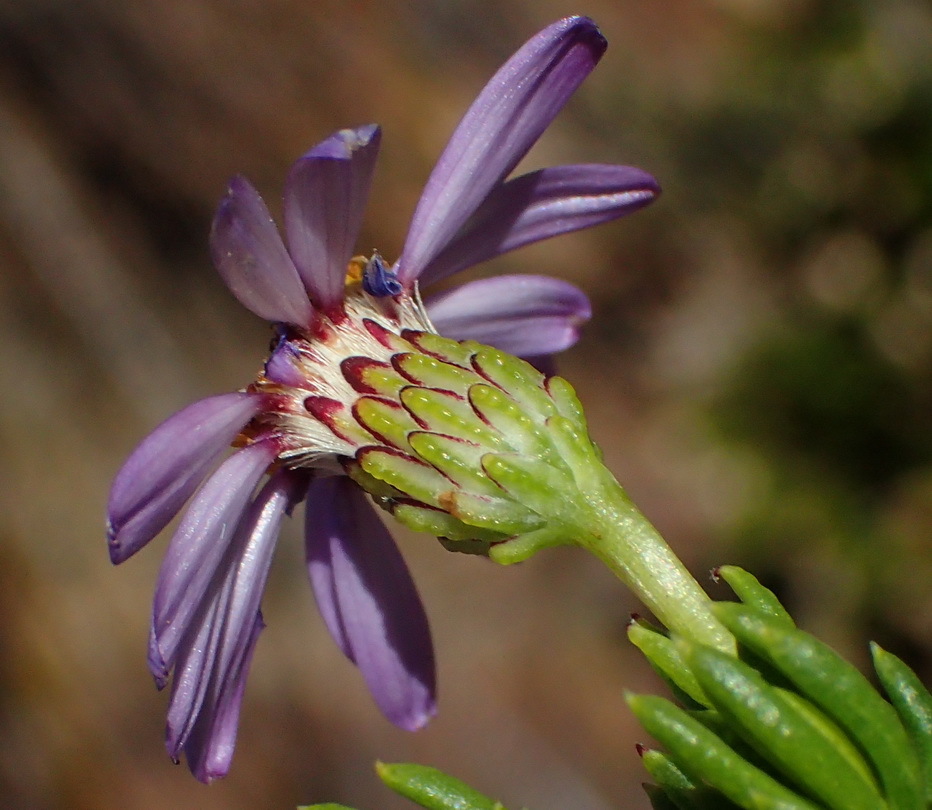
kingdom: Plantae
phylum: Tracheophyta
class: Magnoliopsida
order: Asterales
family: Asteraceae
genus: Felicia
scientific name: Felicia oleosa
